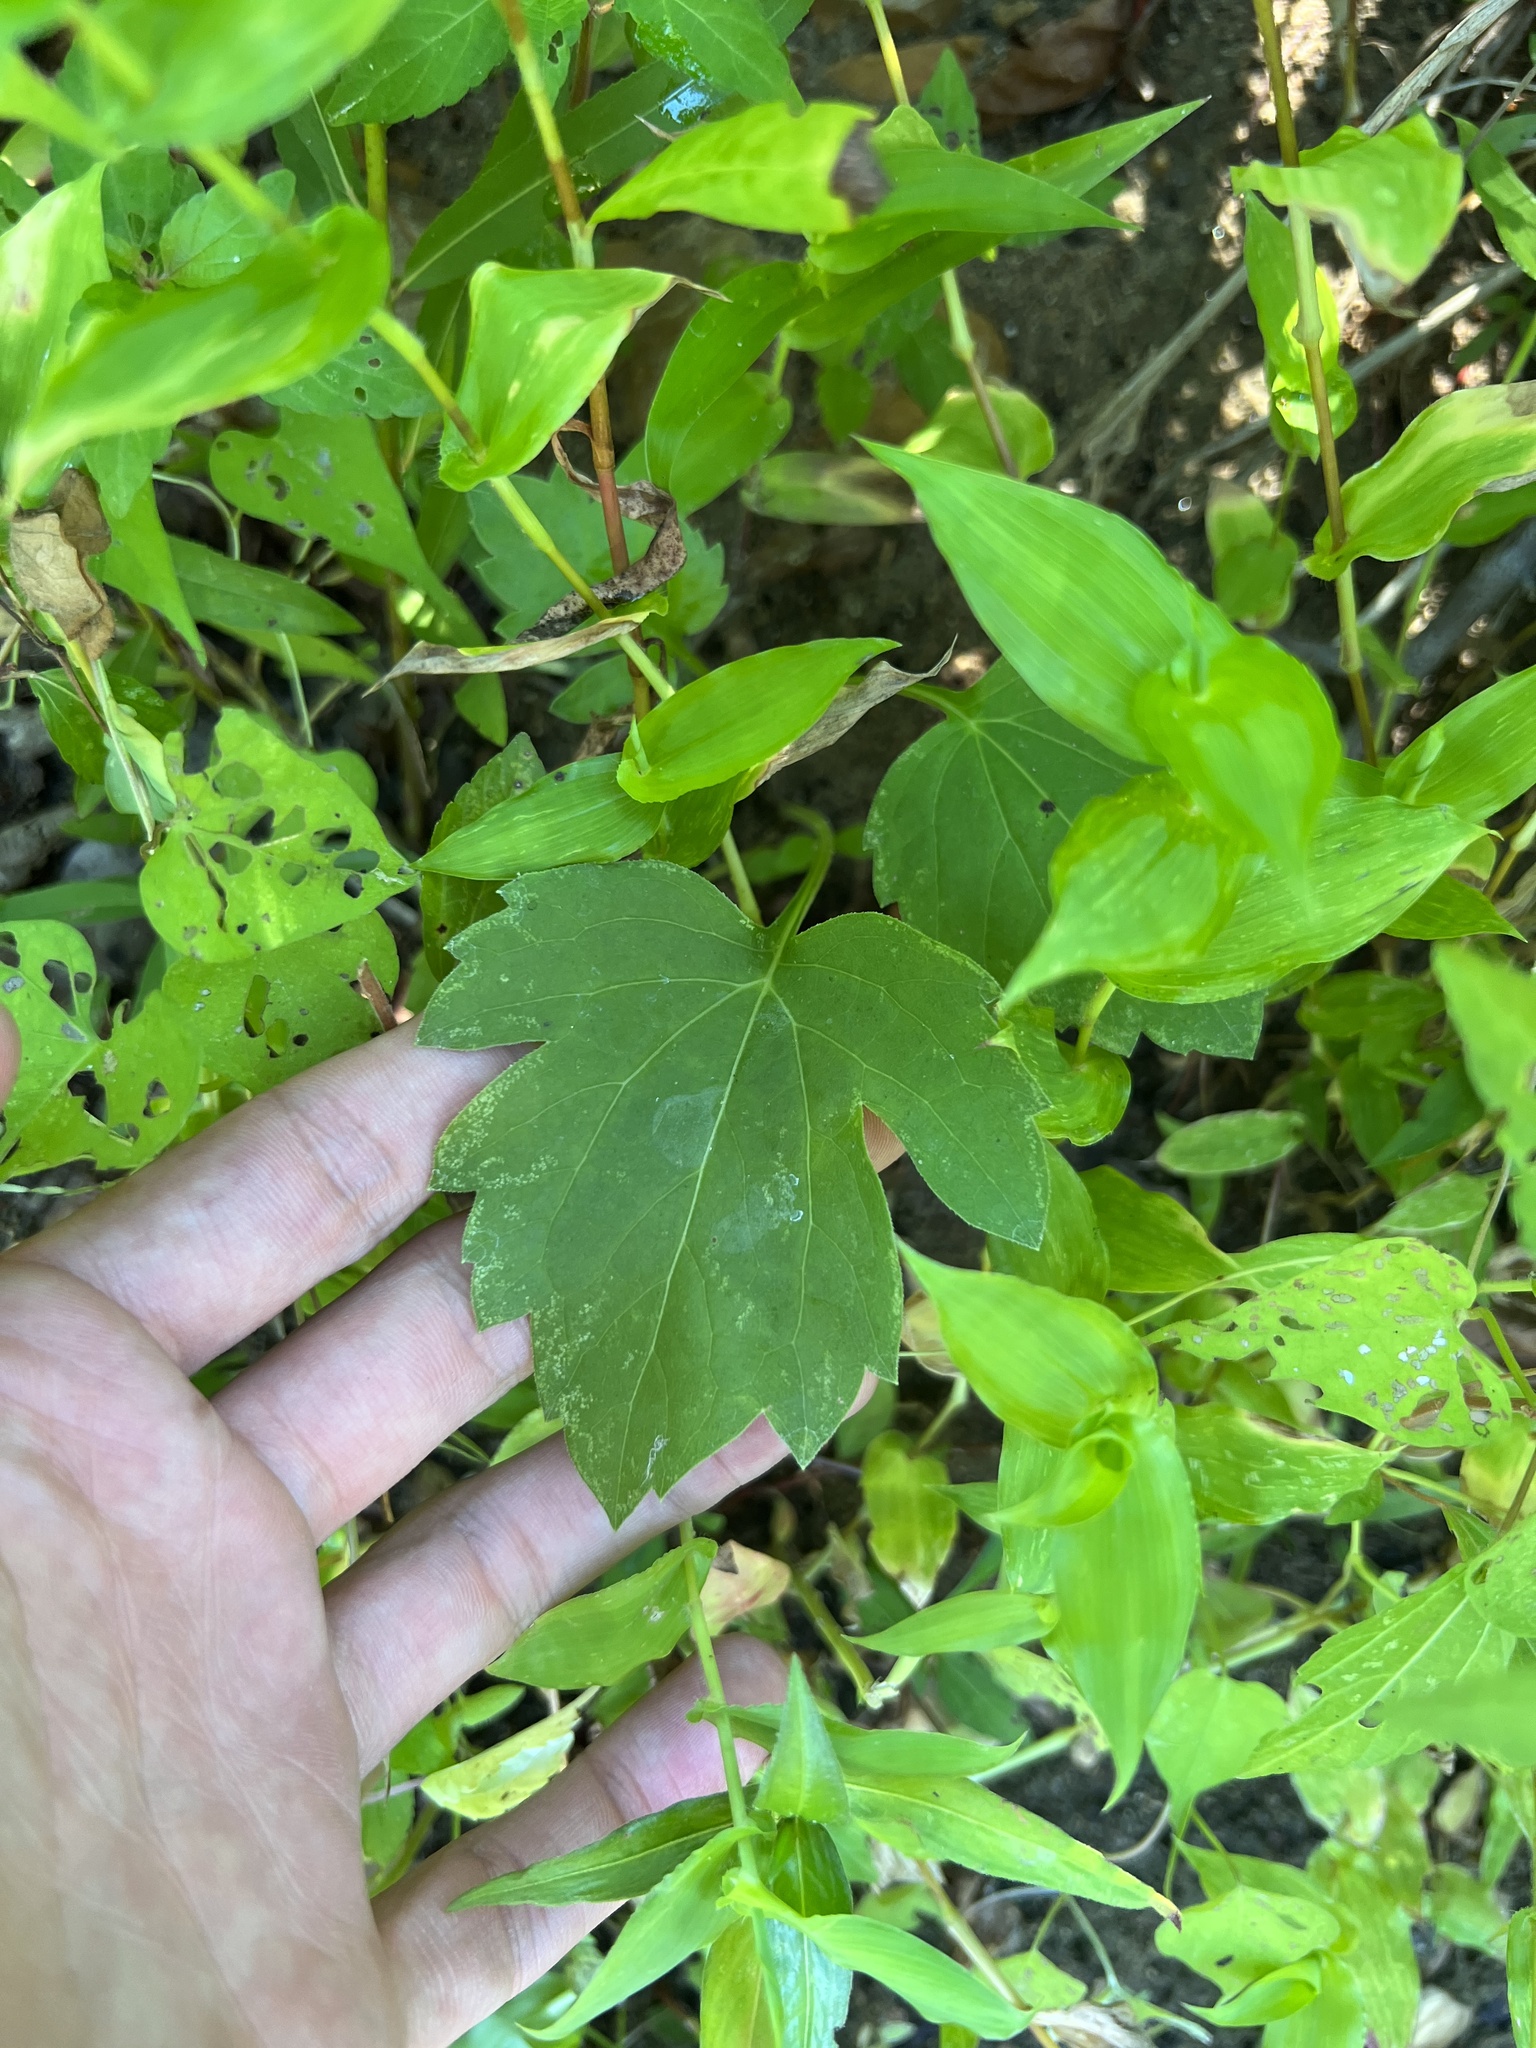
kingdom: Plantae
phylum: Tracheophyta
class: Magnoliopsida
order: Asterales
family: Asteraceae
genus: Rudbeckia
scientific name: Rudbeckia laciniata
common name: Coneflower
